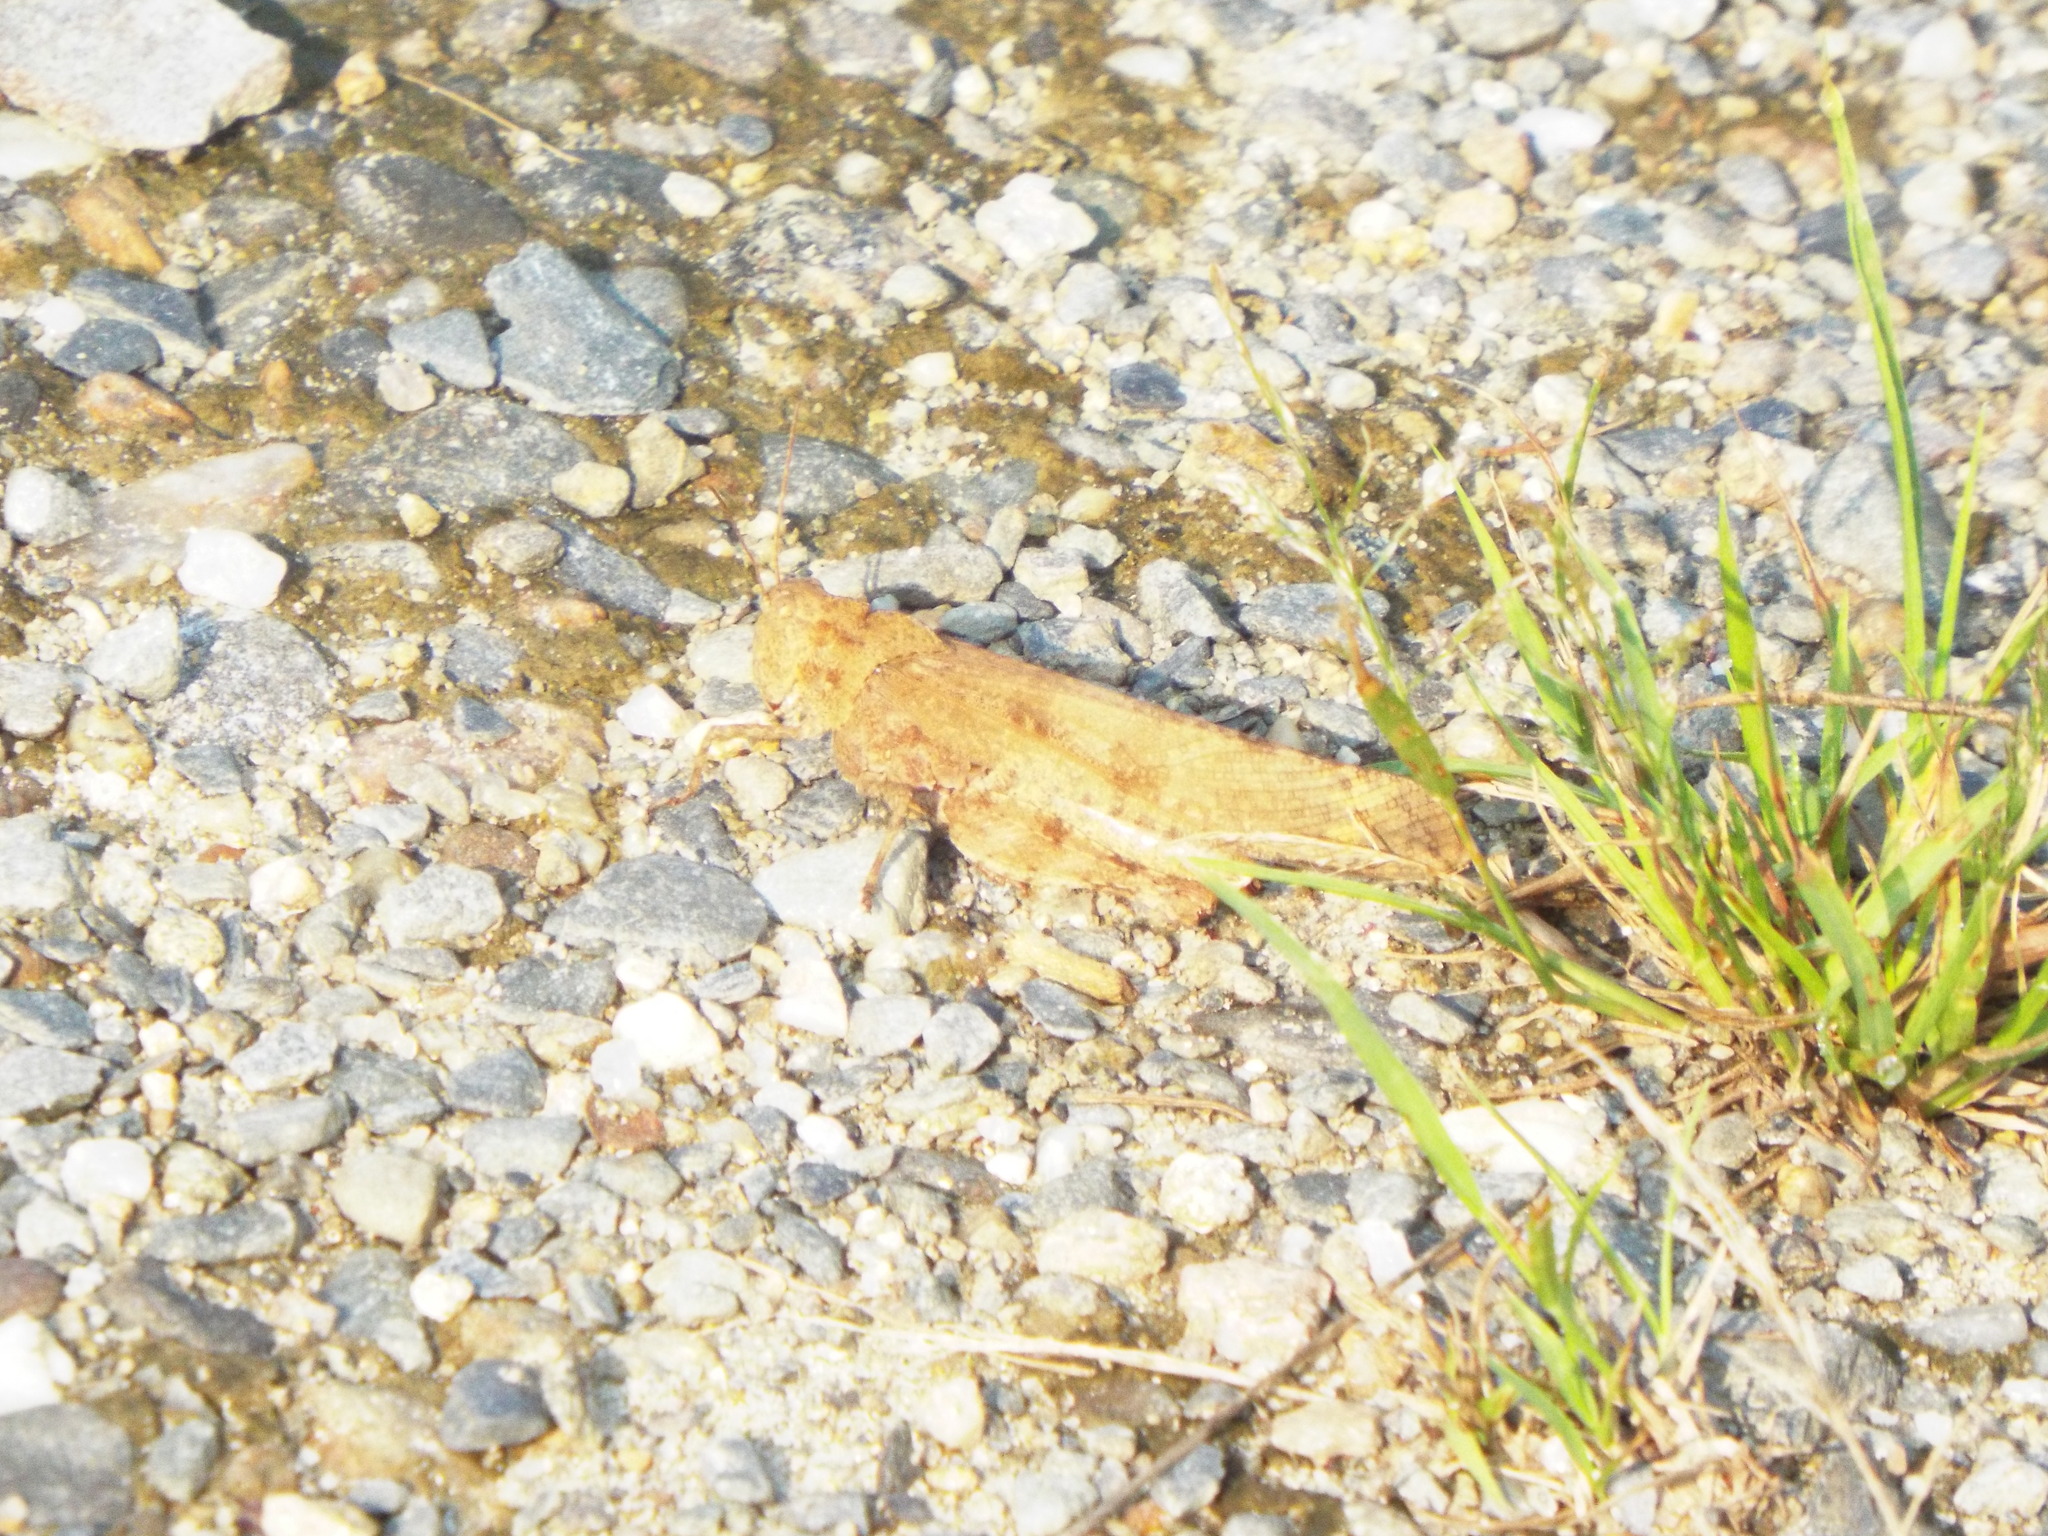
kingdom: Animalia
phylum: Arthropoda
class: Insecta
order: Orthoptera
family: Acrididae
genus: Dissosteira
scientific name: Dissosteira carolina
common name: Carolina grasshopper
